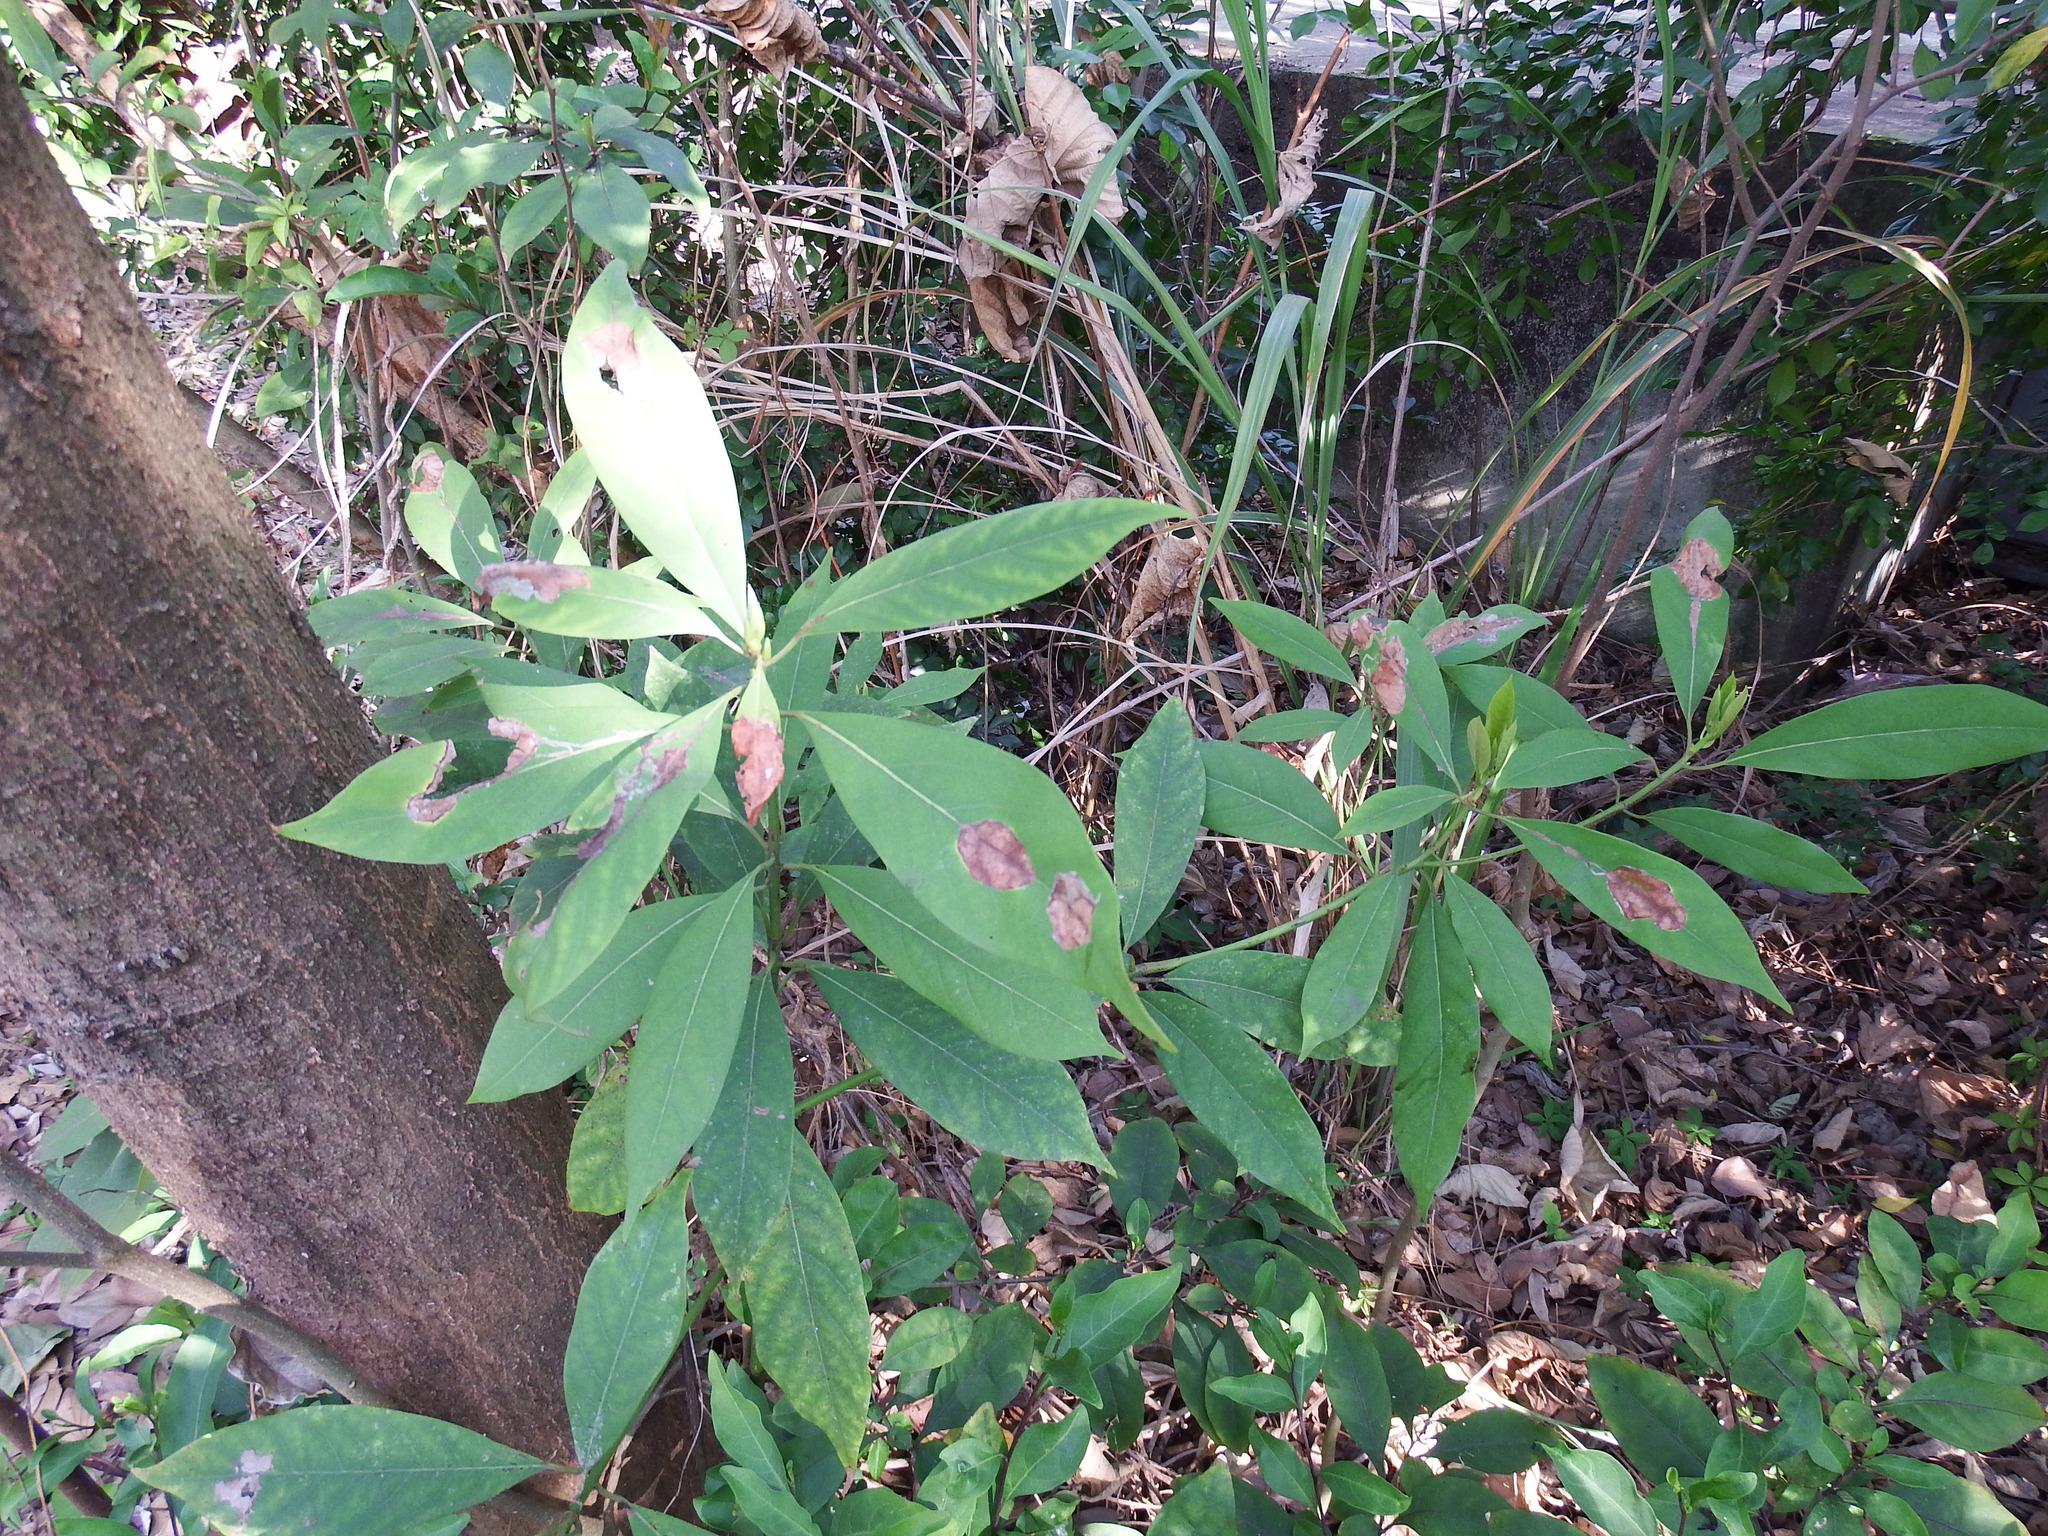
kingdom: Plantae
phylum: Tracheophyta
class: Magnoliopsida
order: Laurales
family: Lauraceae
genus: Machilus
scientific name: Machilus zuihoensis
